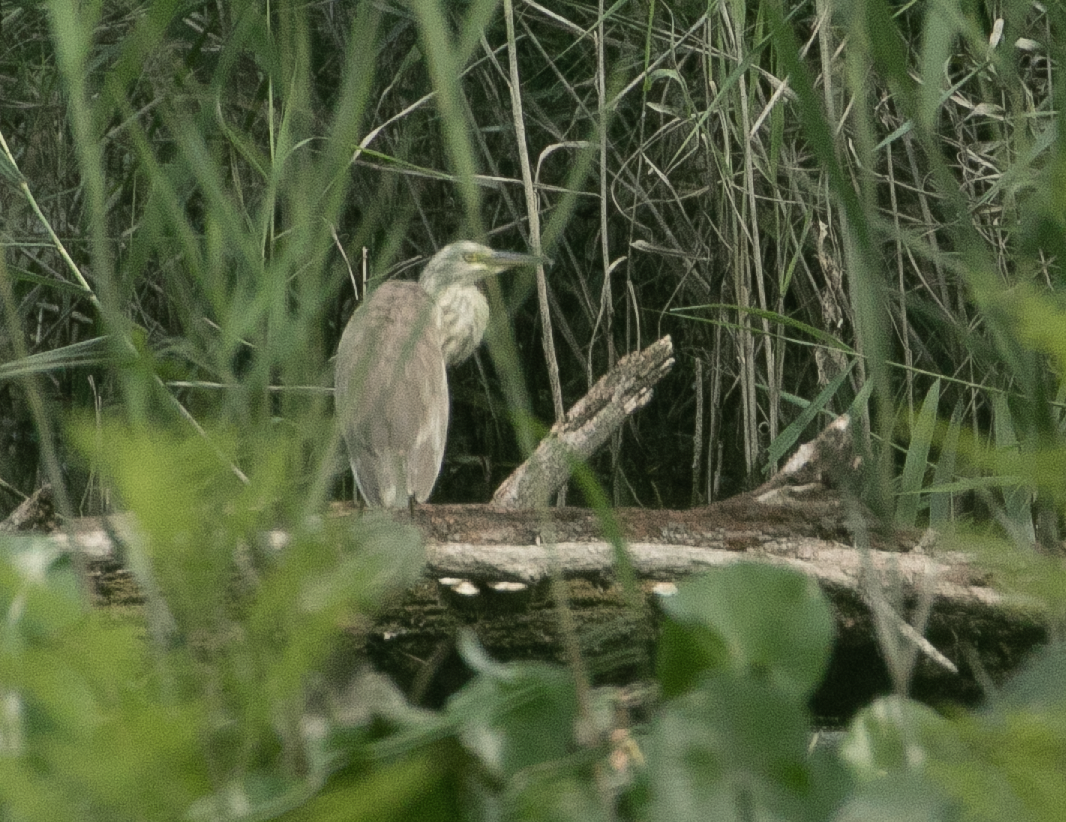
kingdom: Animalia
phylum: Chordata
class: Aves
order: Pelecaniformes
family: Ardeidae
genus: Ardeola
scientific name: Ardeola ralloides
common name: Squacco heron
